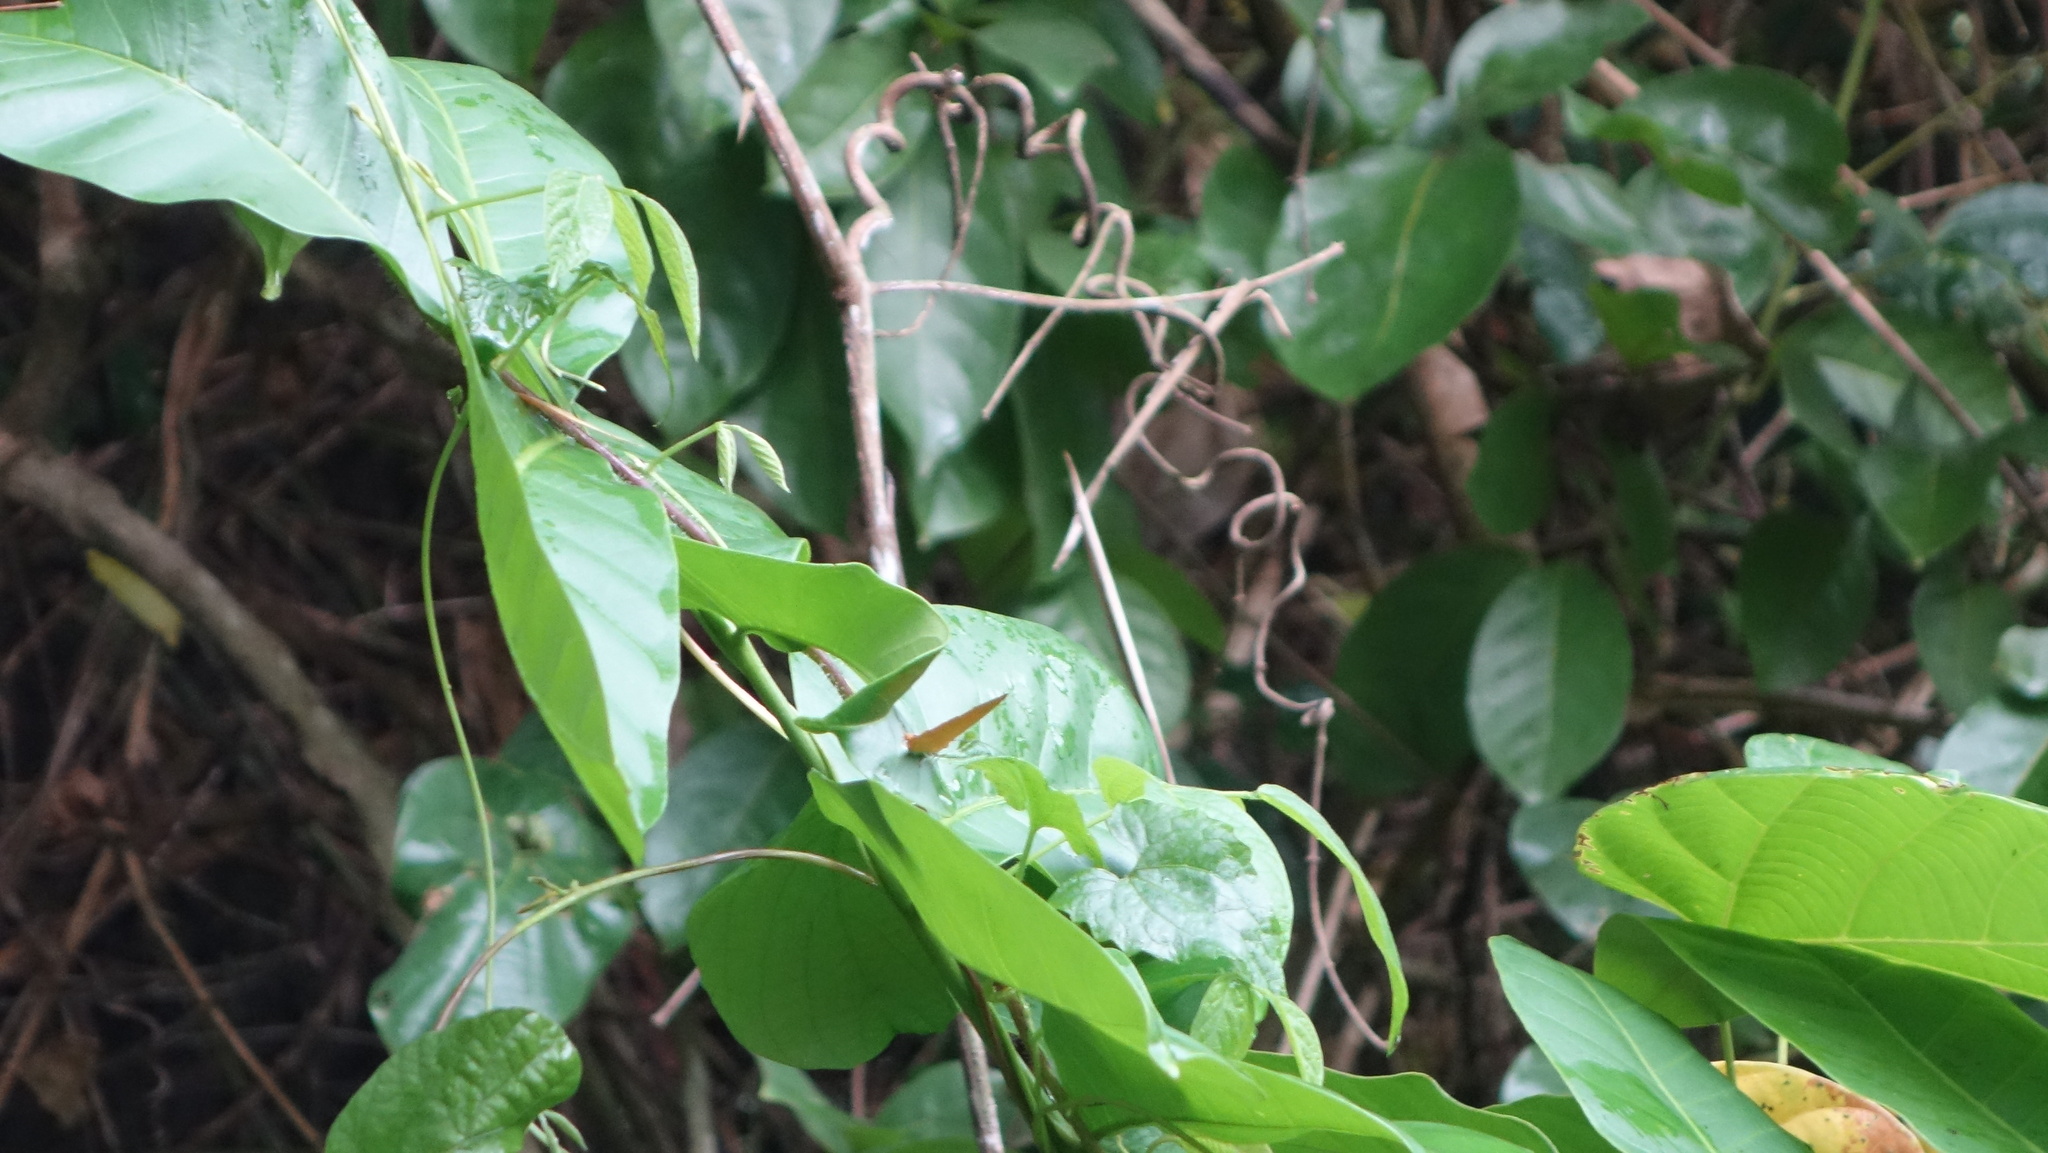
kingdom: Animalia
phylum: Arthropoda
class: Insecta
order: Lepidoptera
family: Lycaenidae
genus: Loxura
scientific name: Loxura atymnus
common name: Common yamfly
